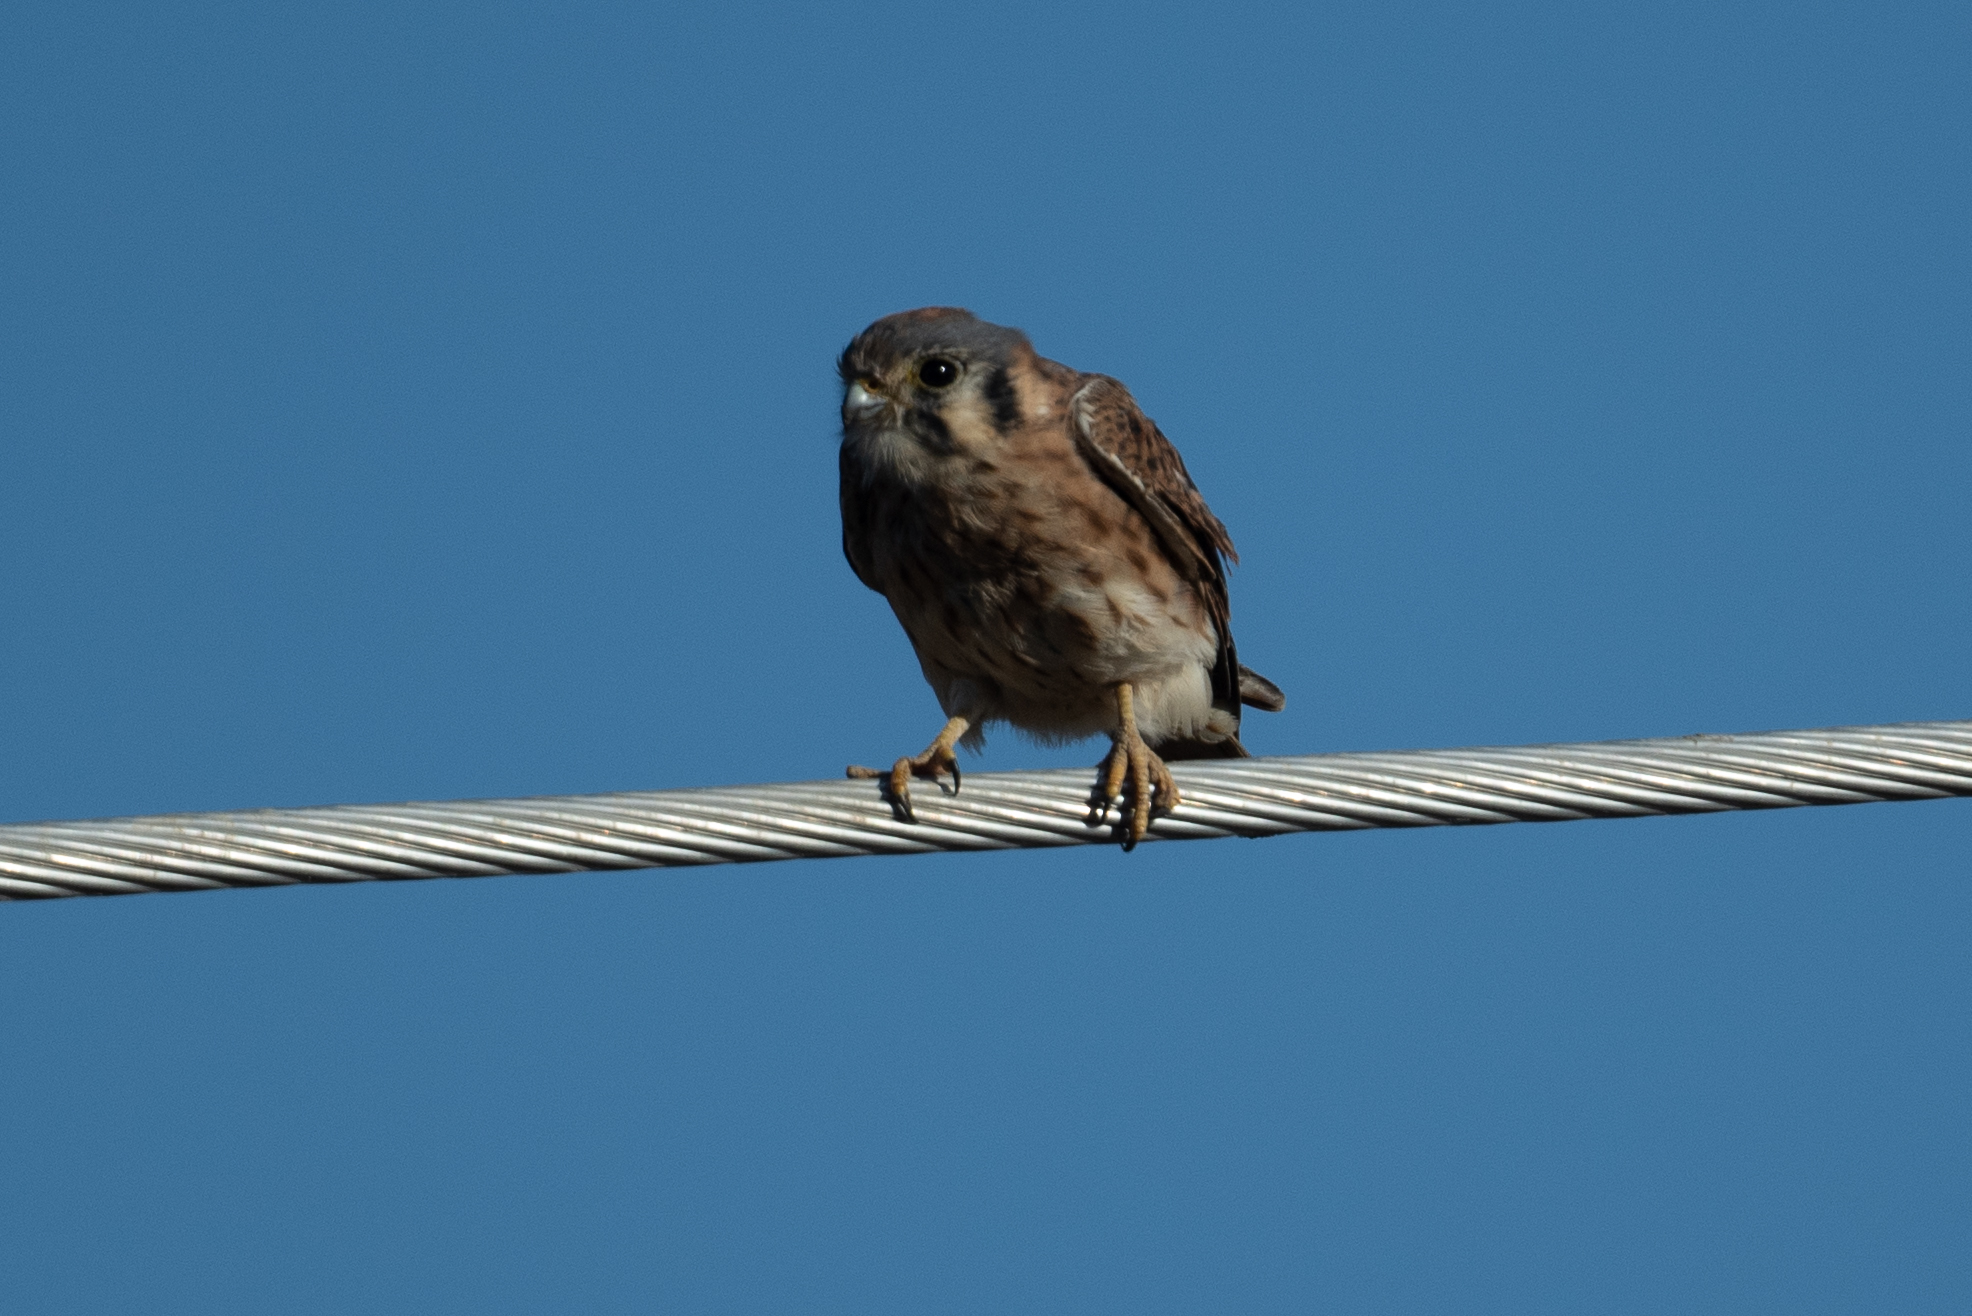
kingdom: Animalia
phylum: Chordata
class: Aves
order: Falconiformes
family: Falconidae
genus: Falco
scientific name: Falco sparverius
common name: American kestrel
